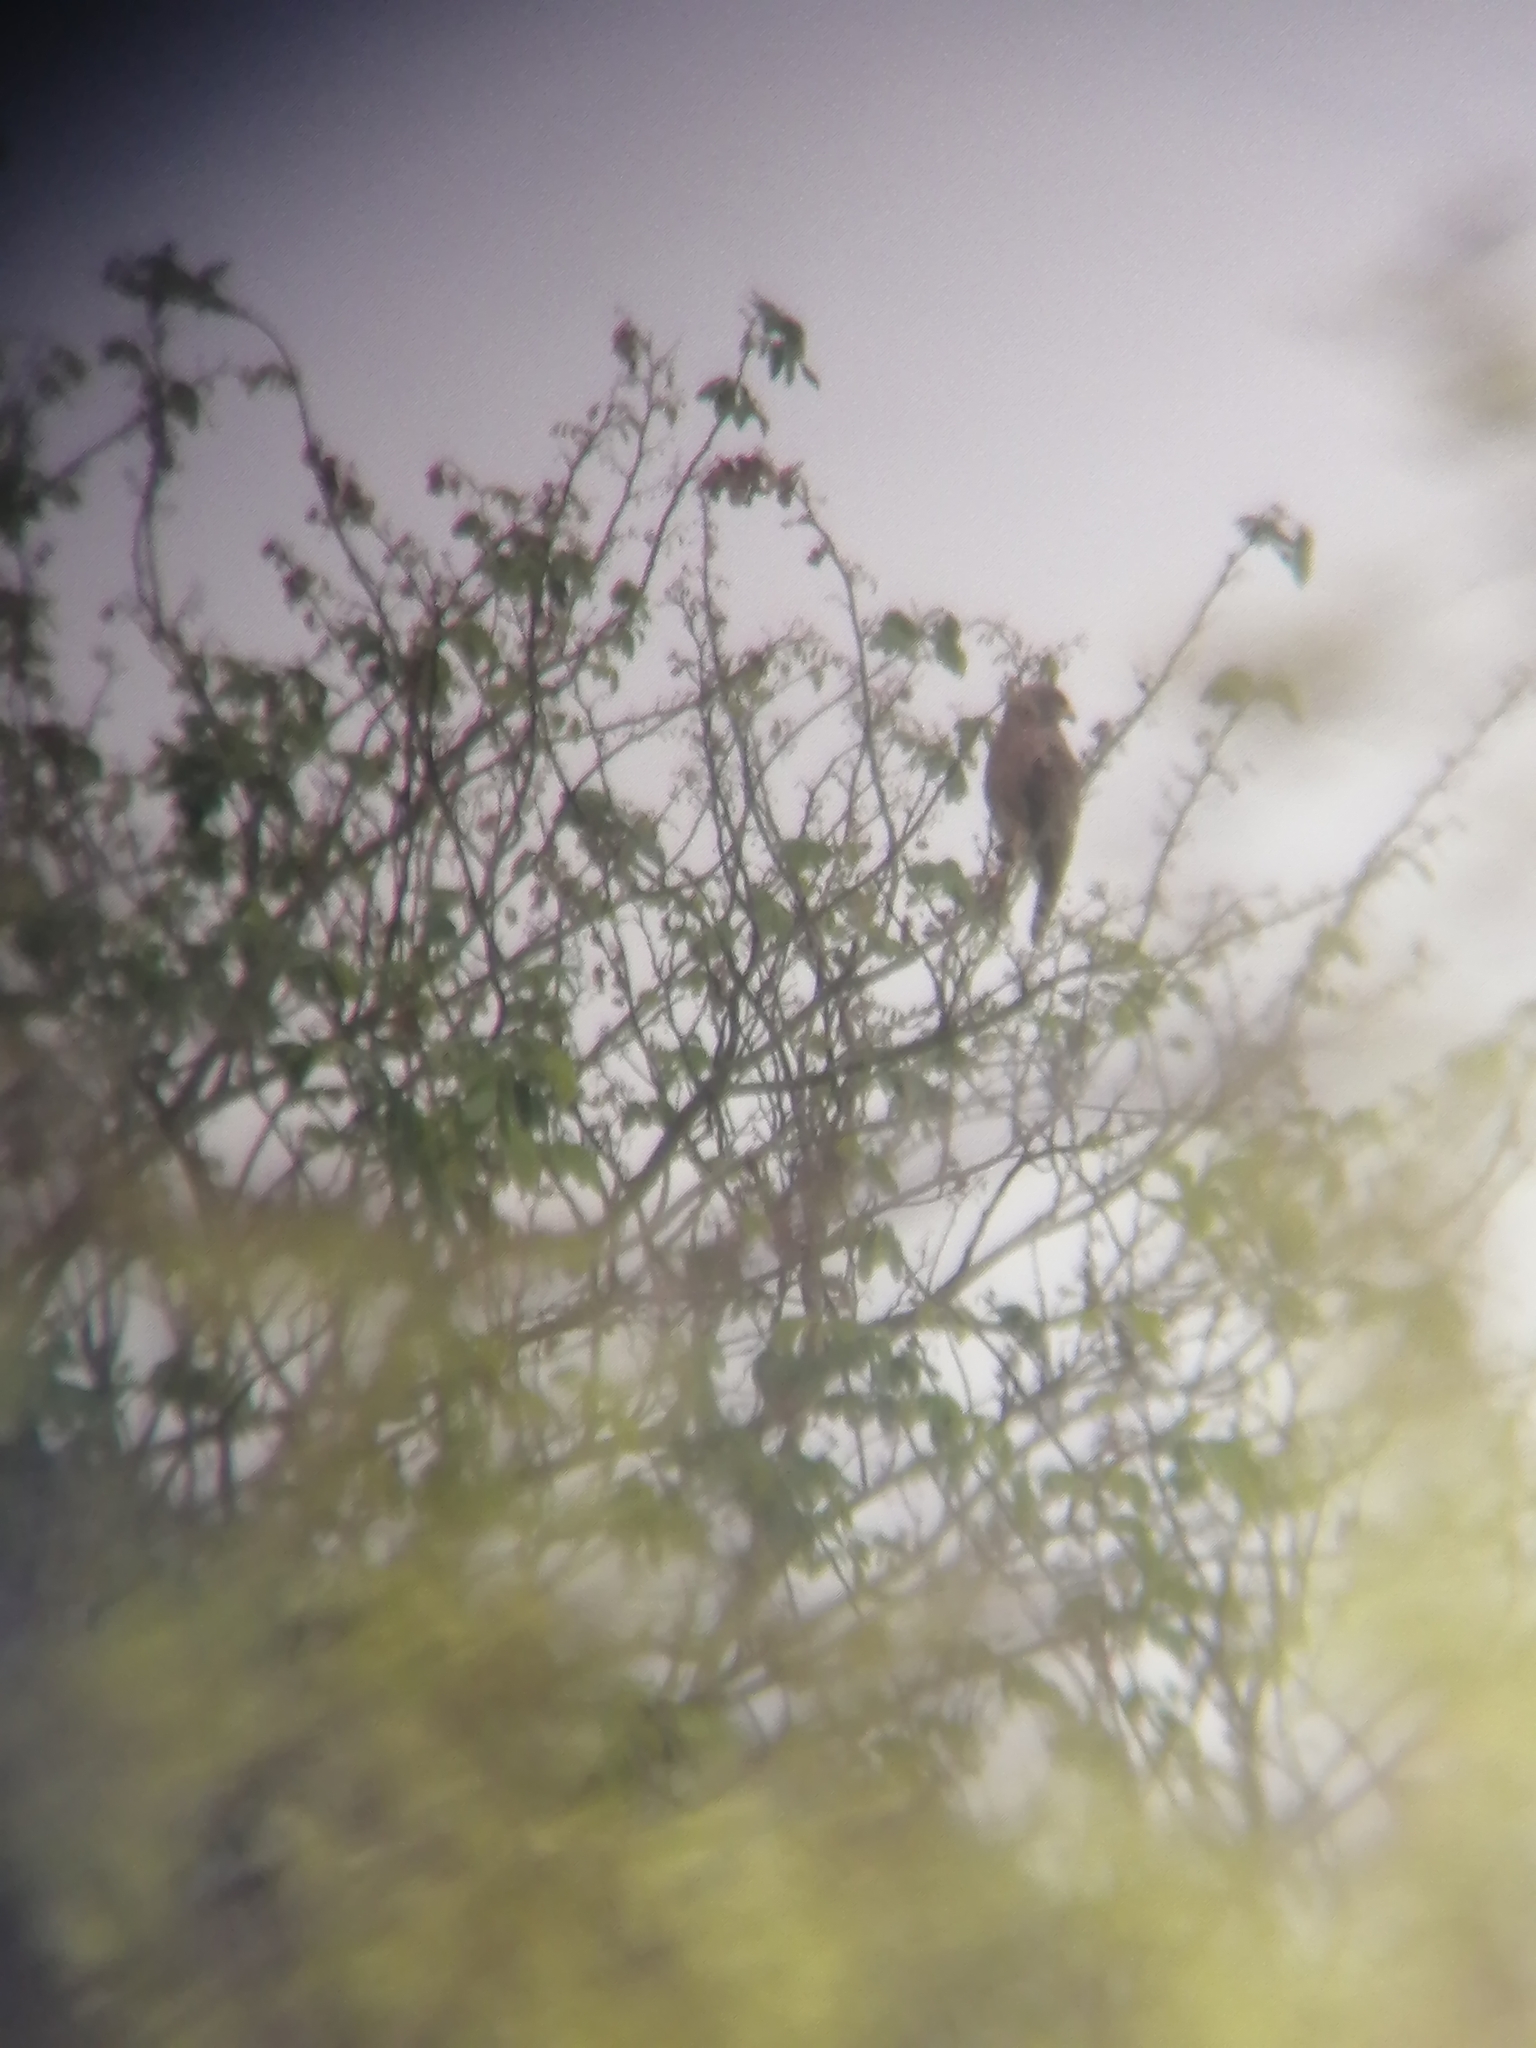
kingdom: Animalia
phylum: Chordata
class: Aves
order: Accipitriformes
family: Accipitridae
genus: Rupornis
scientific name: Rupornis magnirostris
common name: Roadside hawk
